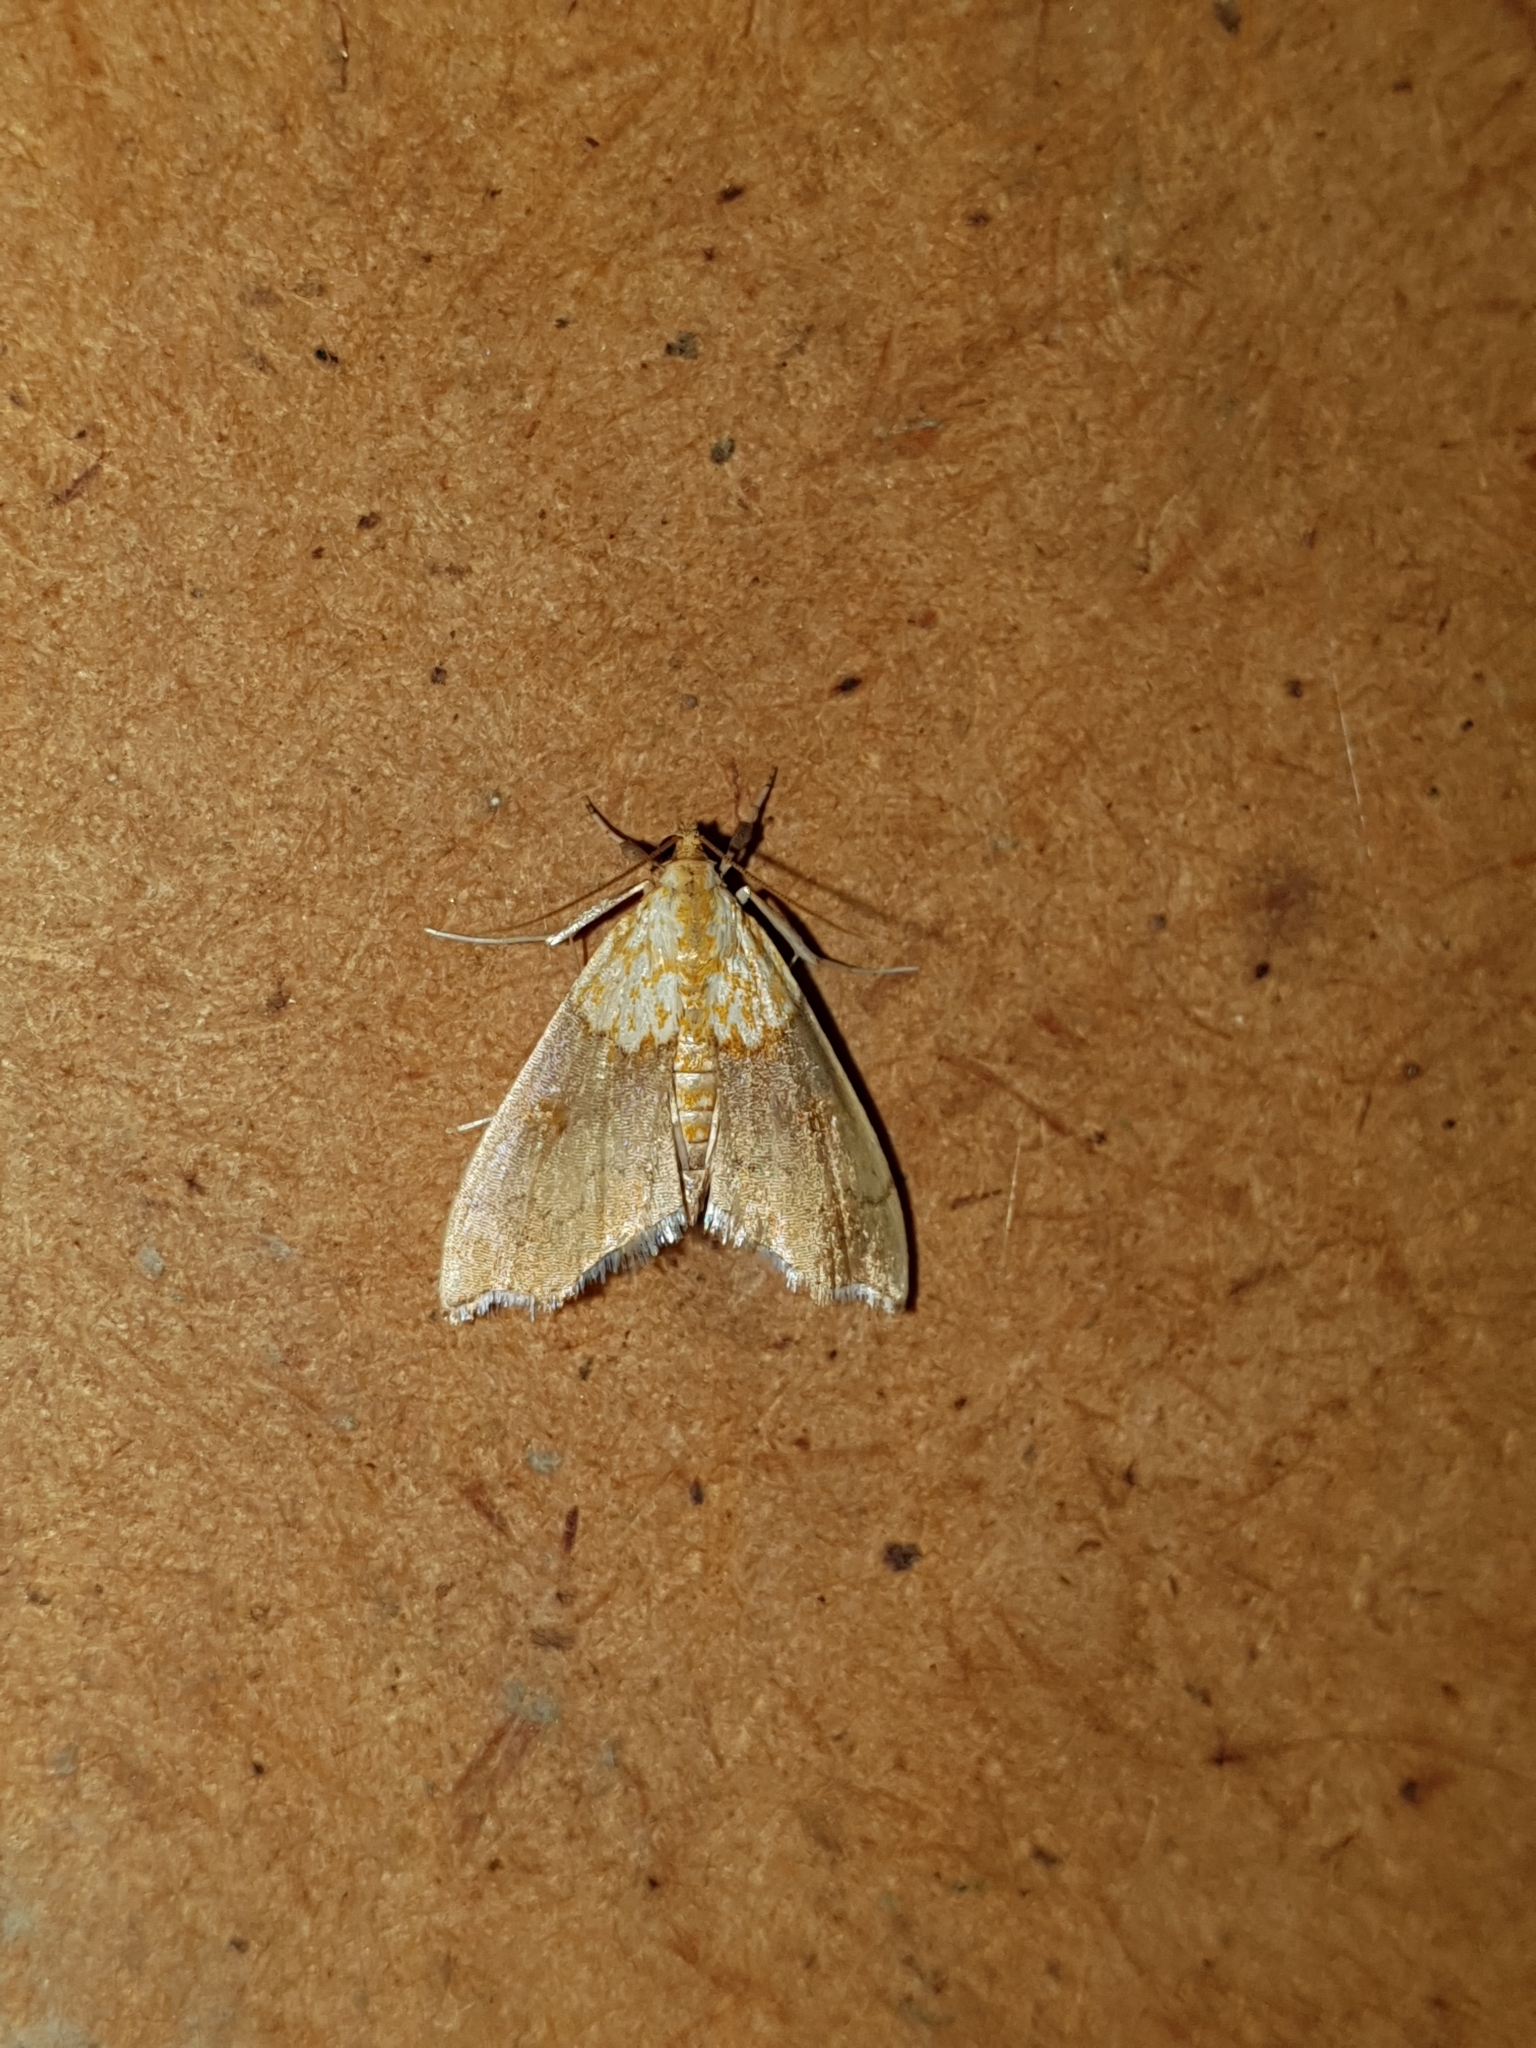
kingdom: Animalia
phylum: Arthropoda
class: Insecta
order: Lepidoptera
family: Crambidae
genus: Agrotera
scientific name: Agrotera nemoralis
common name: Beautiful pearl
